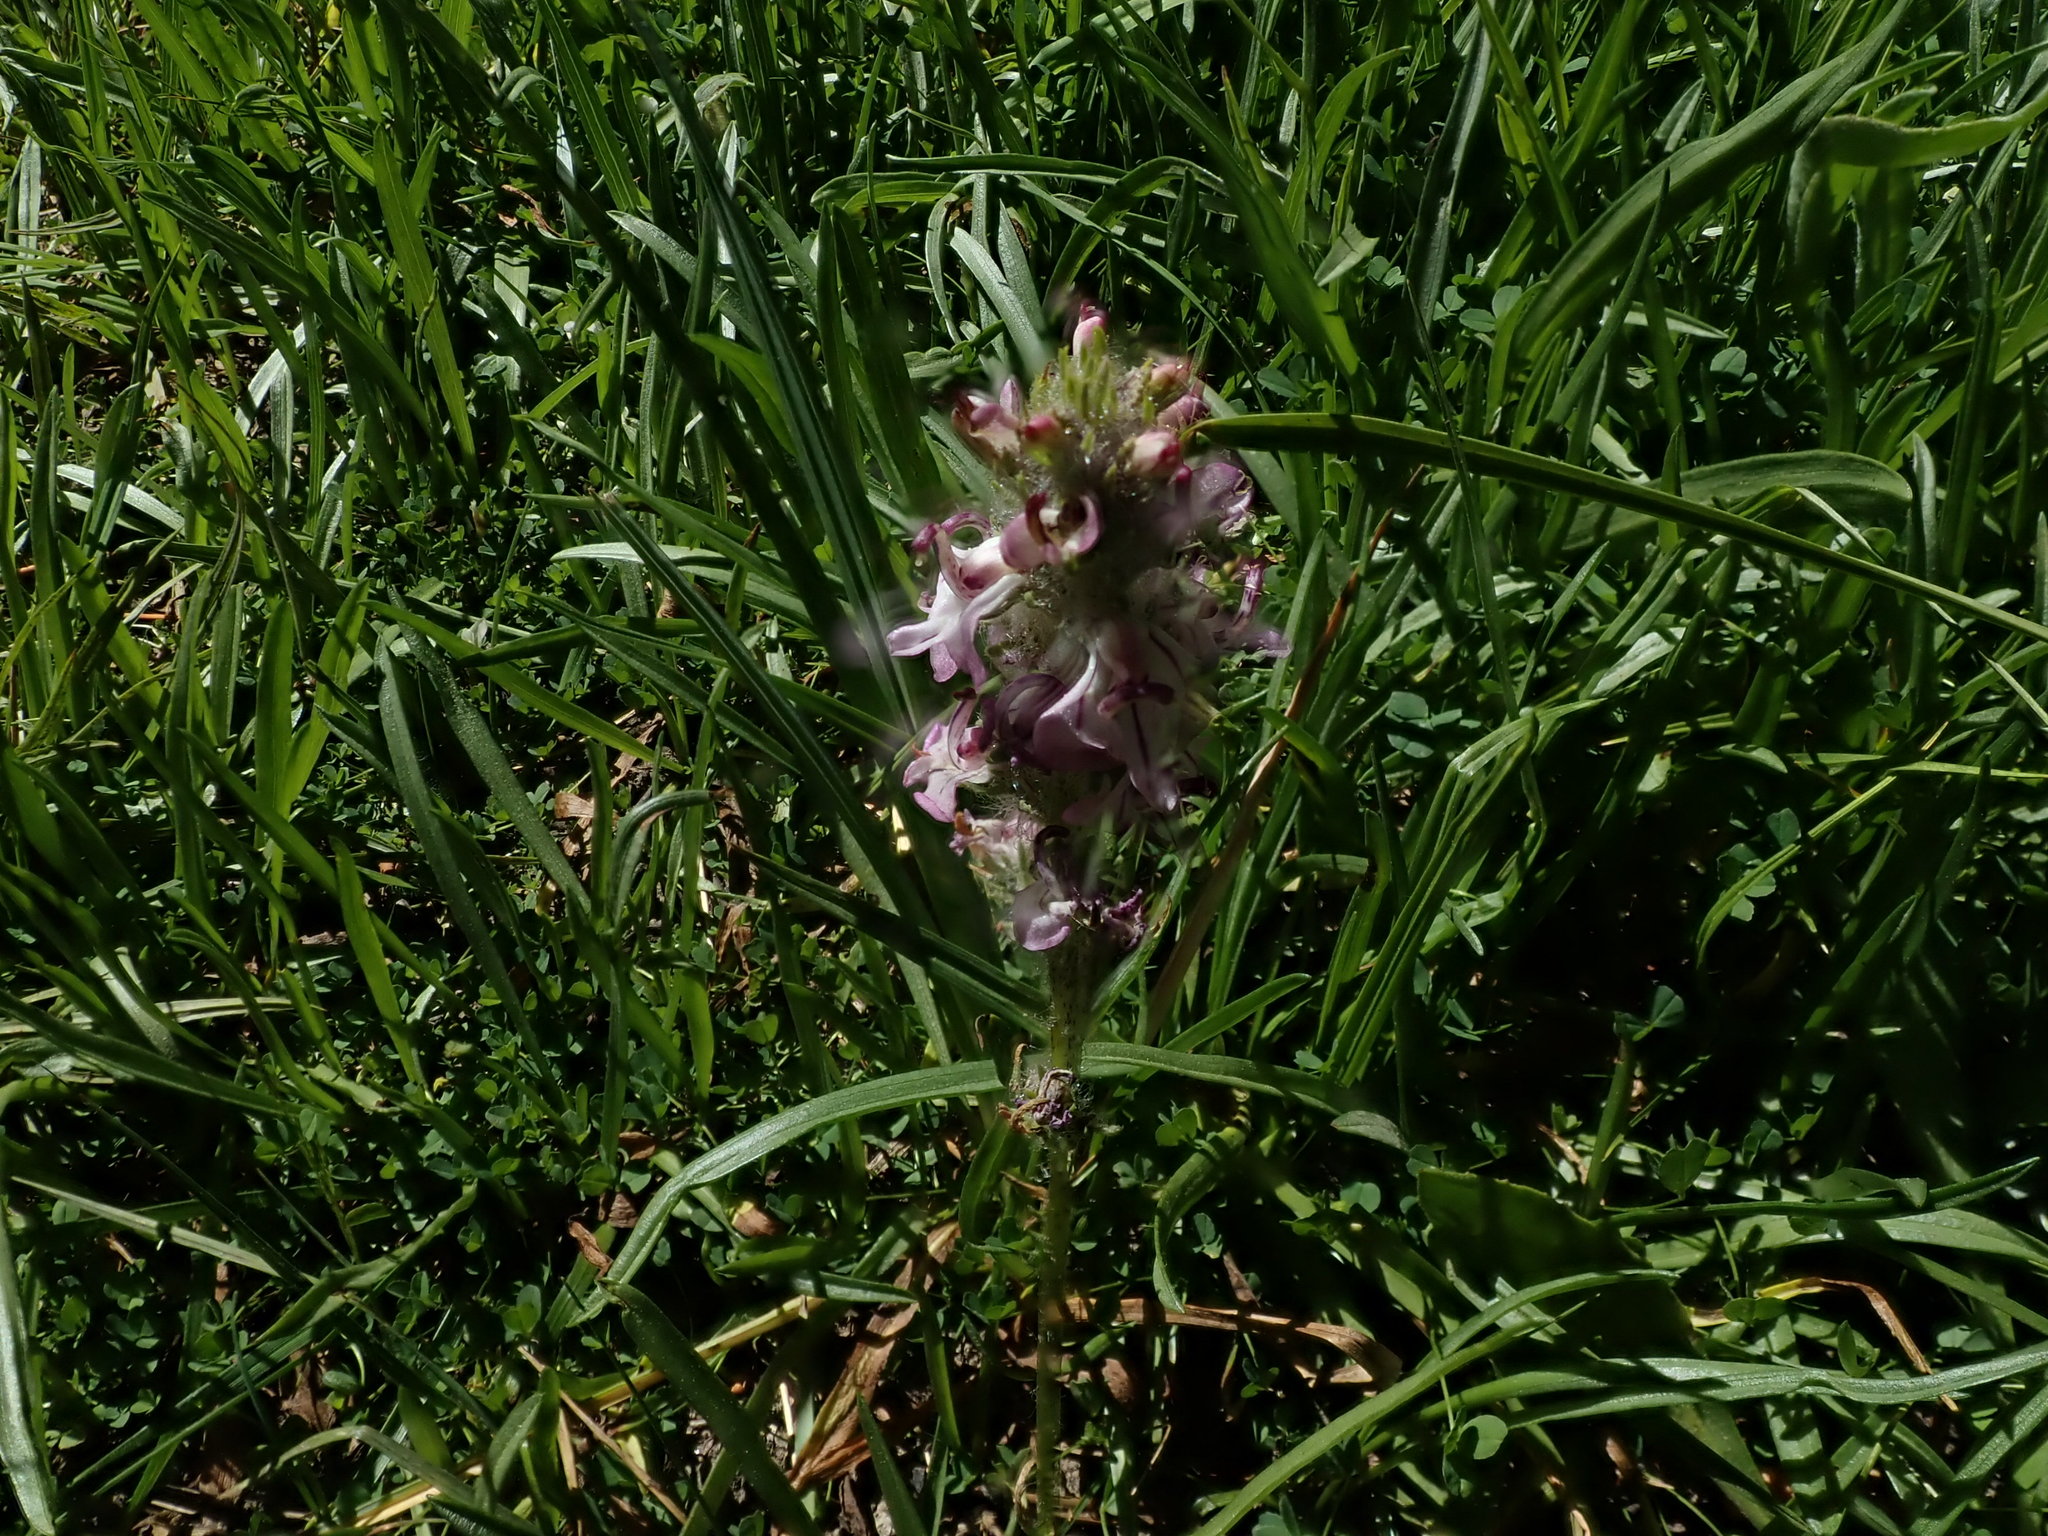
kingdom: Plantae
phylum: Tracheophyta
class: Magnoliopsida
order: Lamiales
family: Orobanchaceae
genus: Pedicularis
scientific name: Pedicularis attollens
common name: Slender pedicularis
